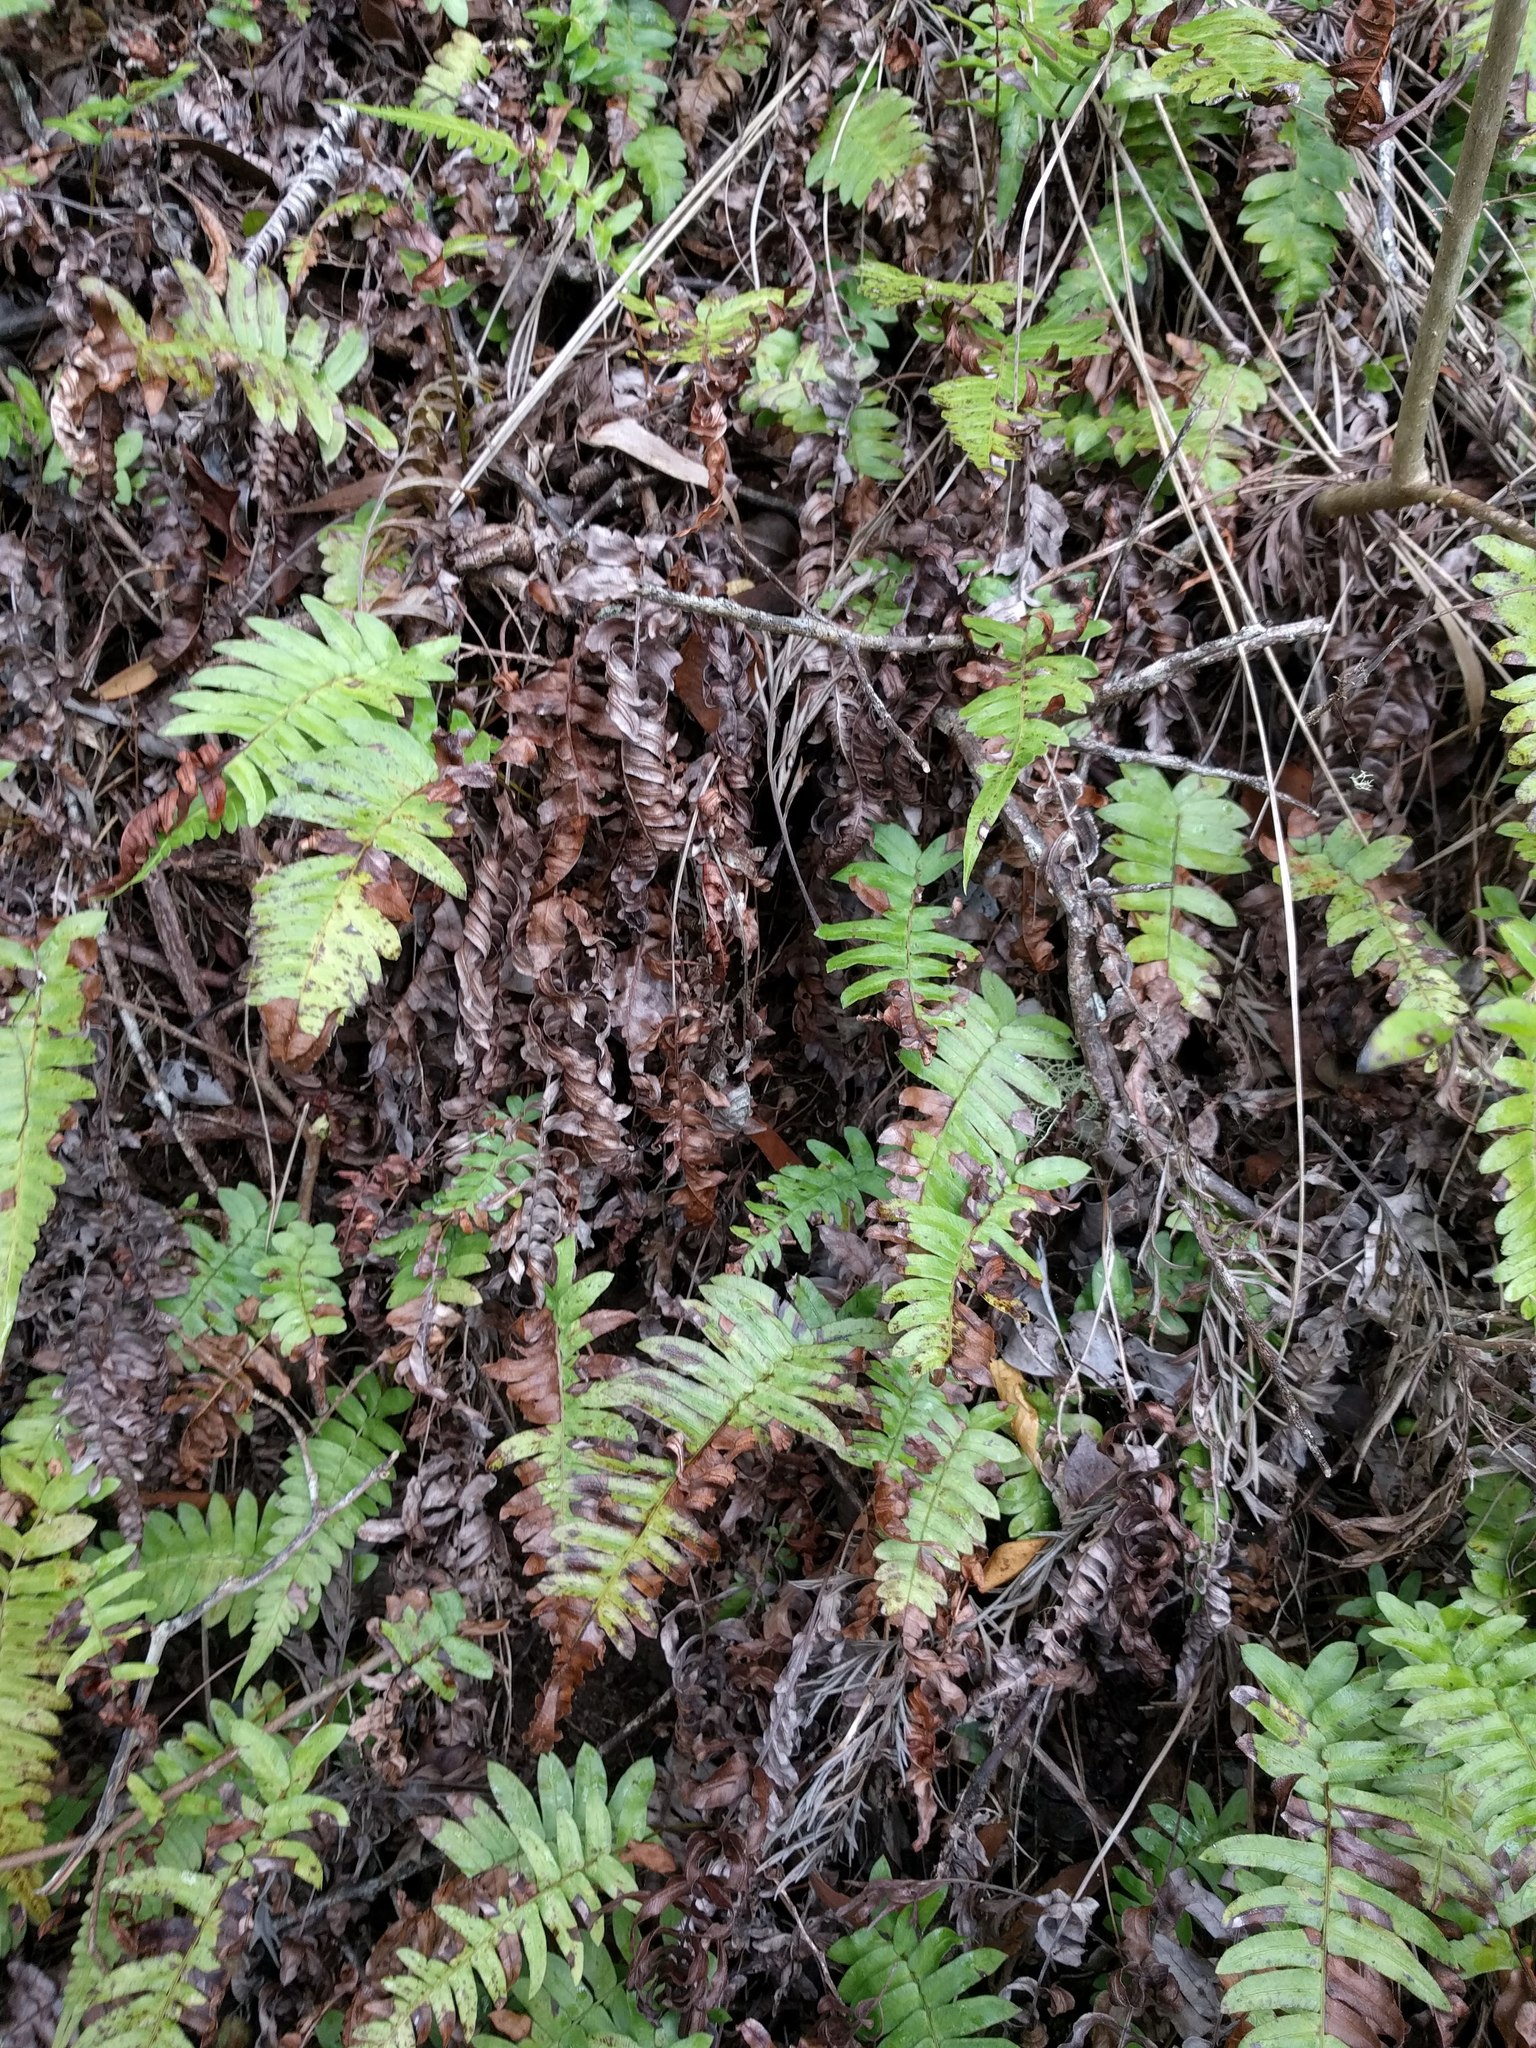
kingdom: Plantae
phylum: Tracheophyta
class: Polypodiopsida
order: Polypodiales
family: Blechnaceae
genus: Blechnum
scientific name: Blechnum appendiculatum
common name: Palm fern
